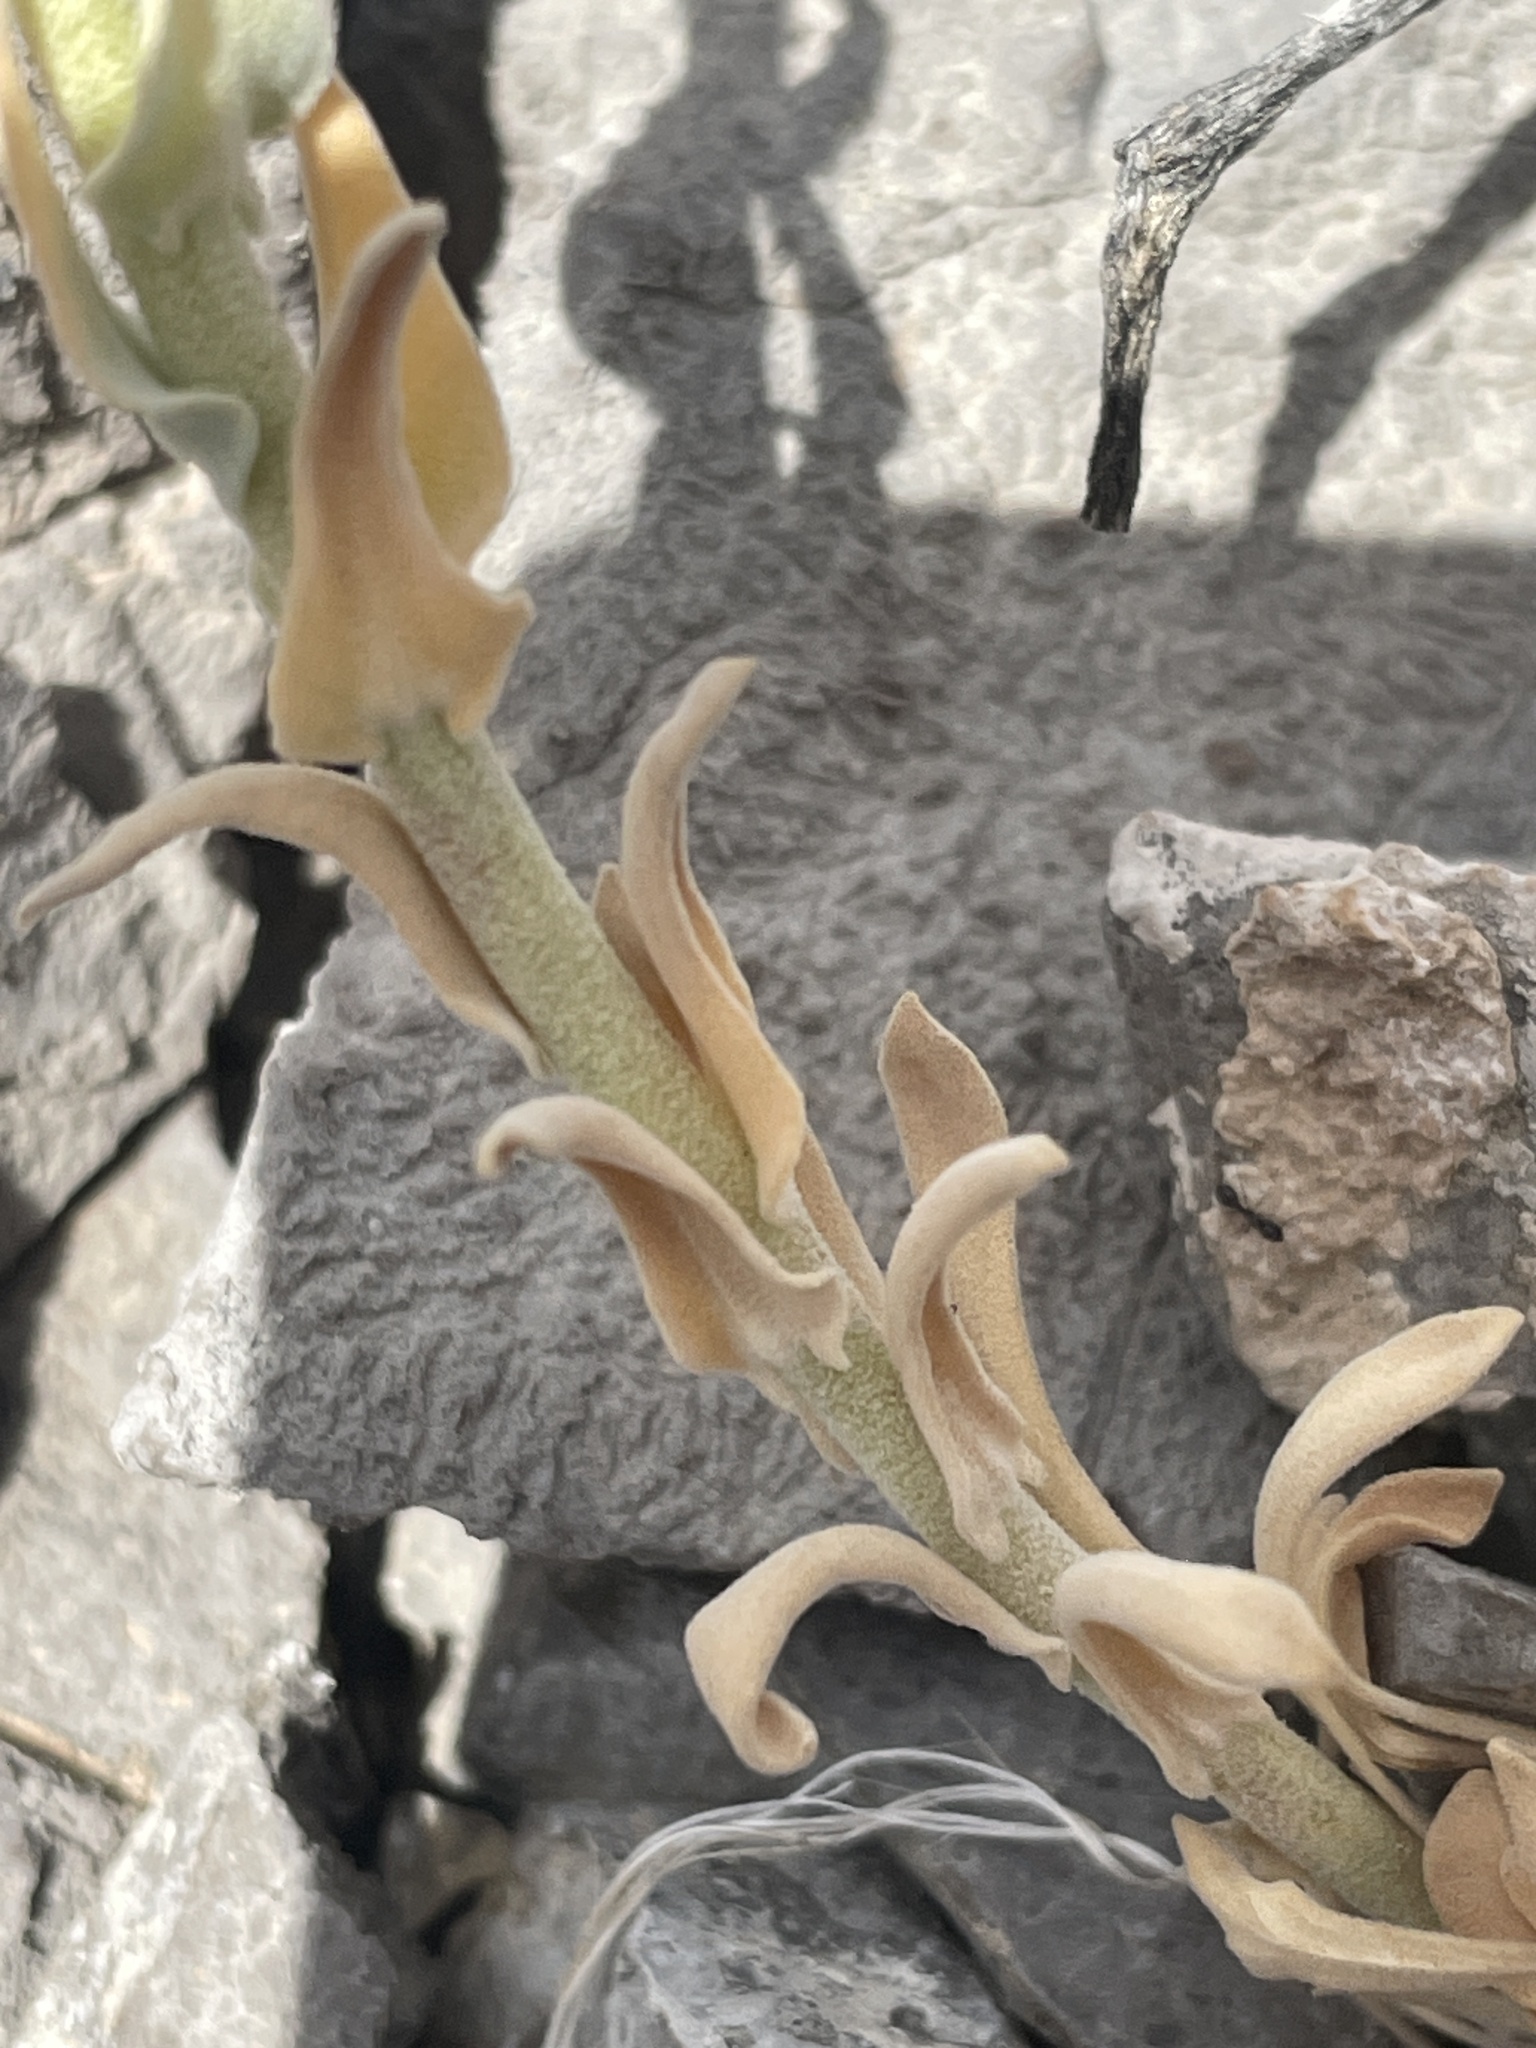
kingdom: Plantae
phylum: Tracheophyta
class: Magnoliopsida
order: Brassicales
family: Brassicaceae
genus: Boechera
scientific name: Boechera shockleyi
